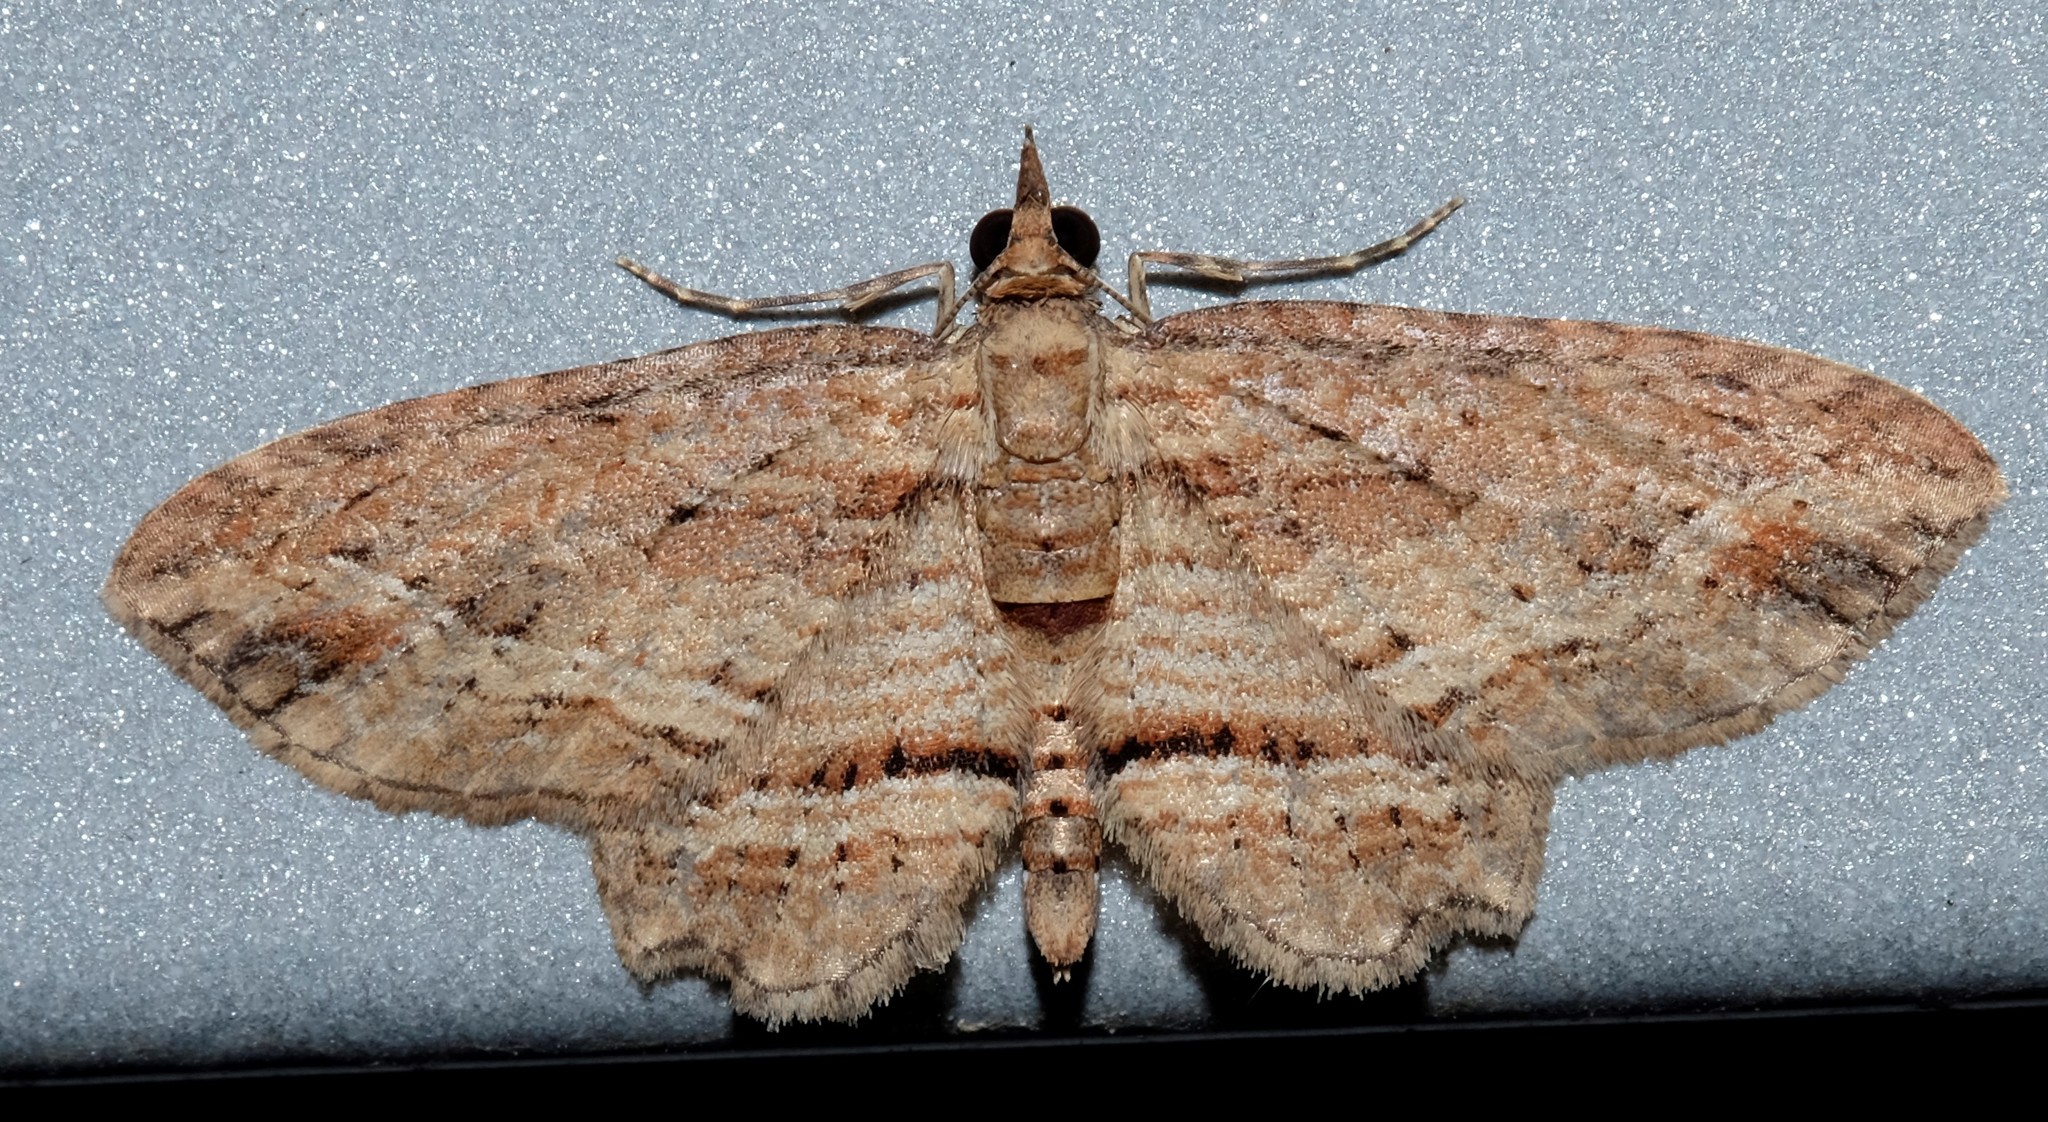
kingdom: Animalia
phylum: Arthropoda
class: Insecta
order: Lepidoptera
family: Geometridae
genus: Chloroclystis
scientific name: Chloroclystis filata
